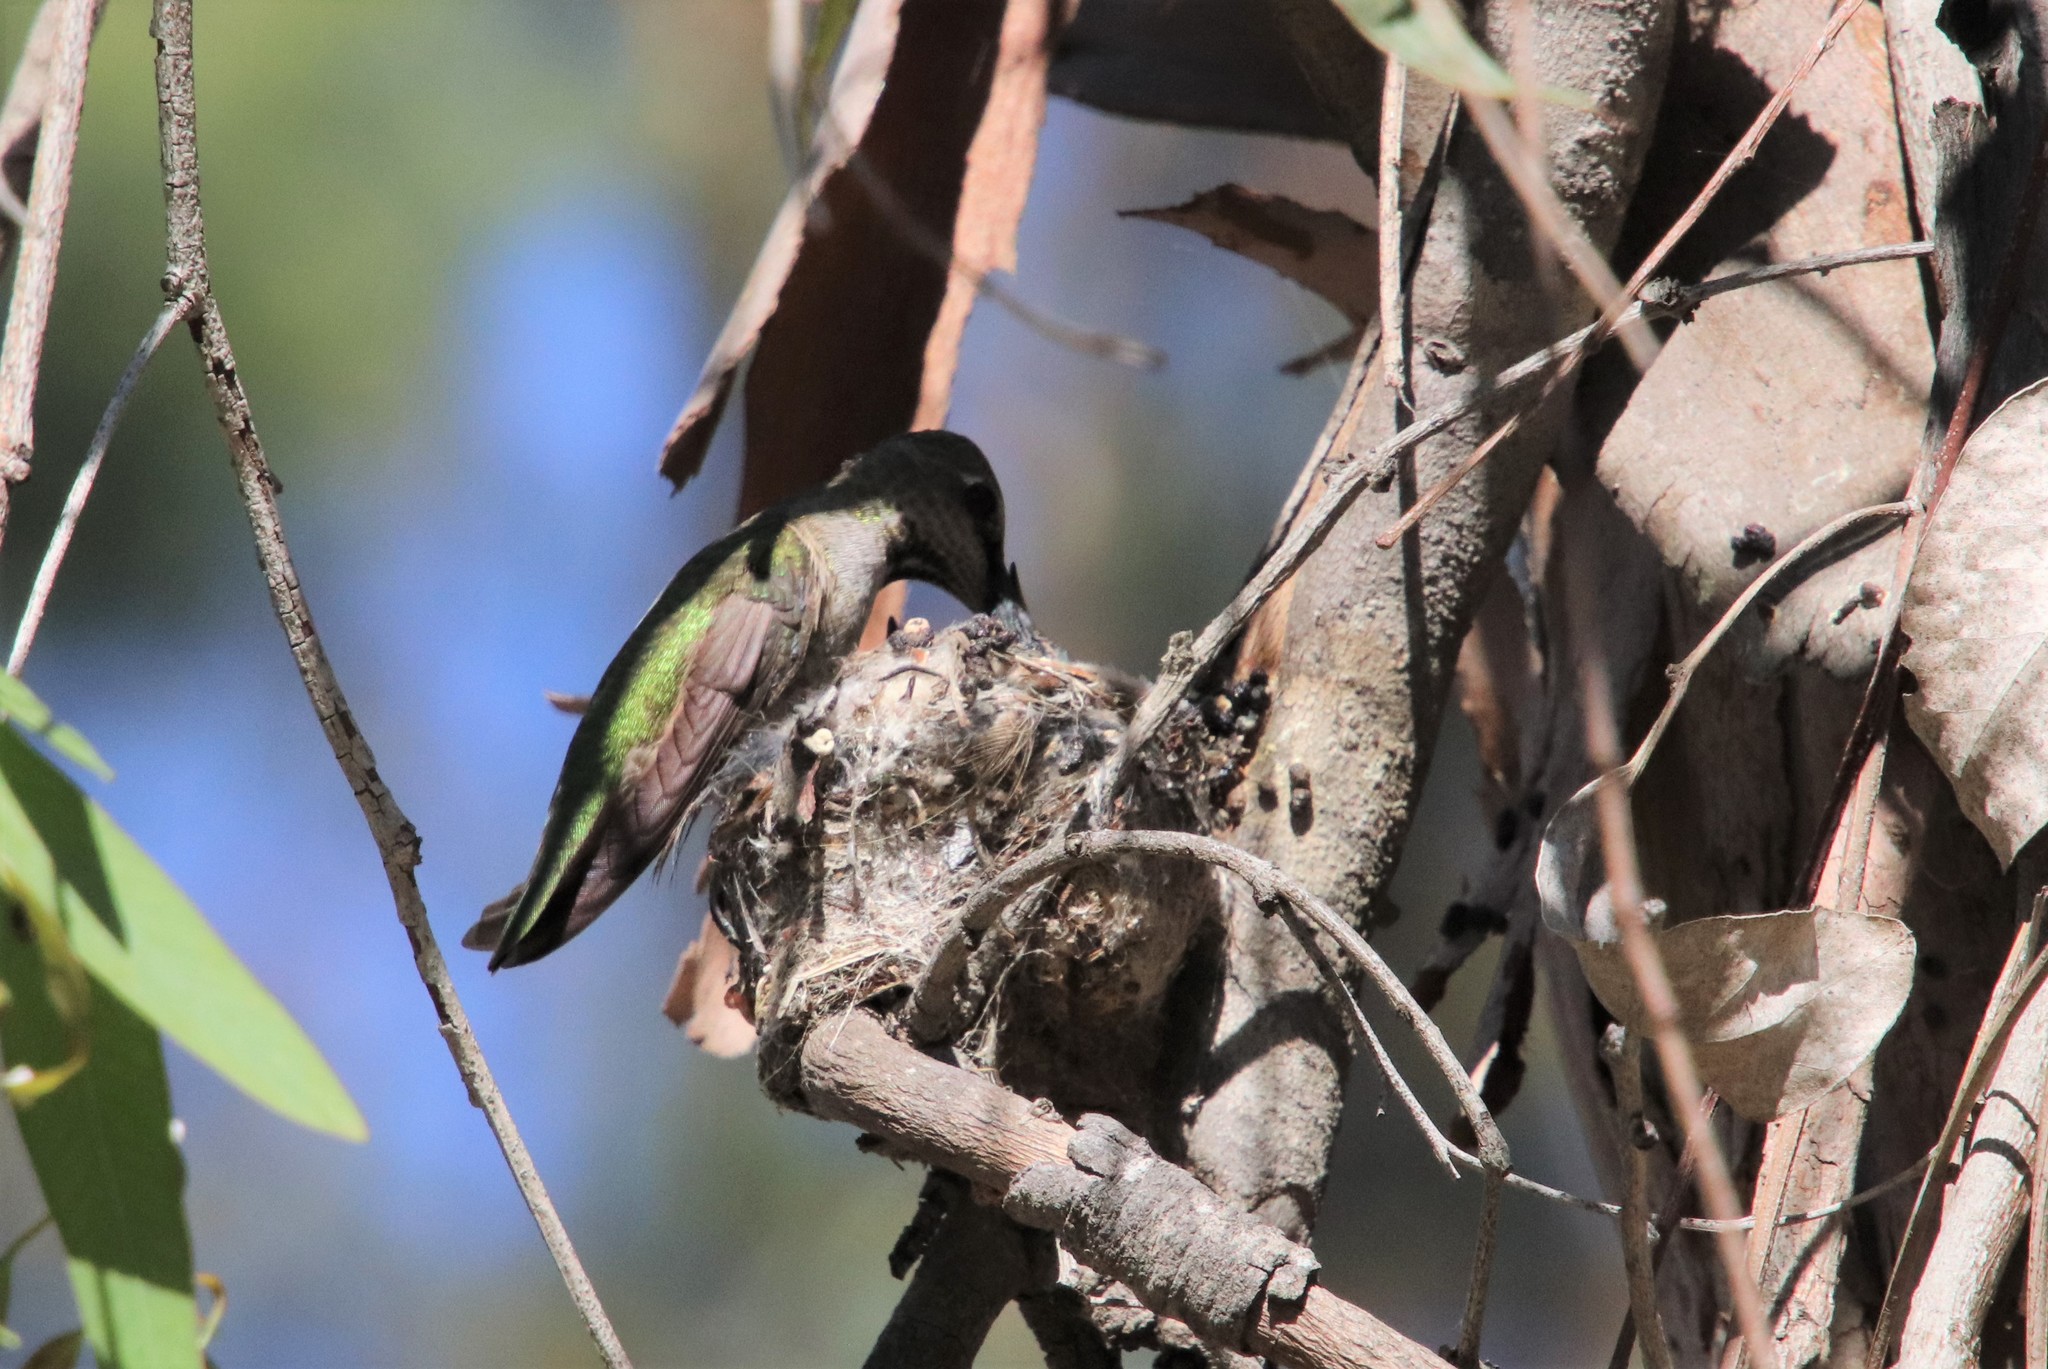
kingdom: Animalia
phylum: Chordata
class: Aves
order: Apodiformes
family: Trochilidae
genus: Calypte
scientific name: Calypte anna
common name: Anna's hummingbird
